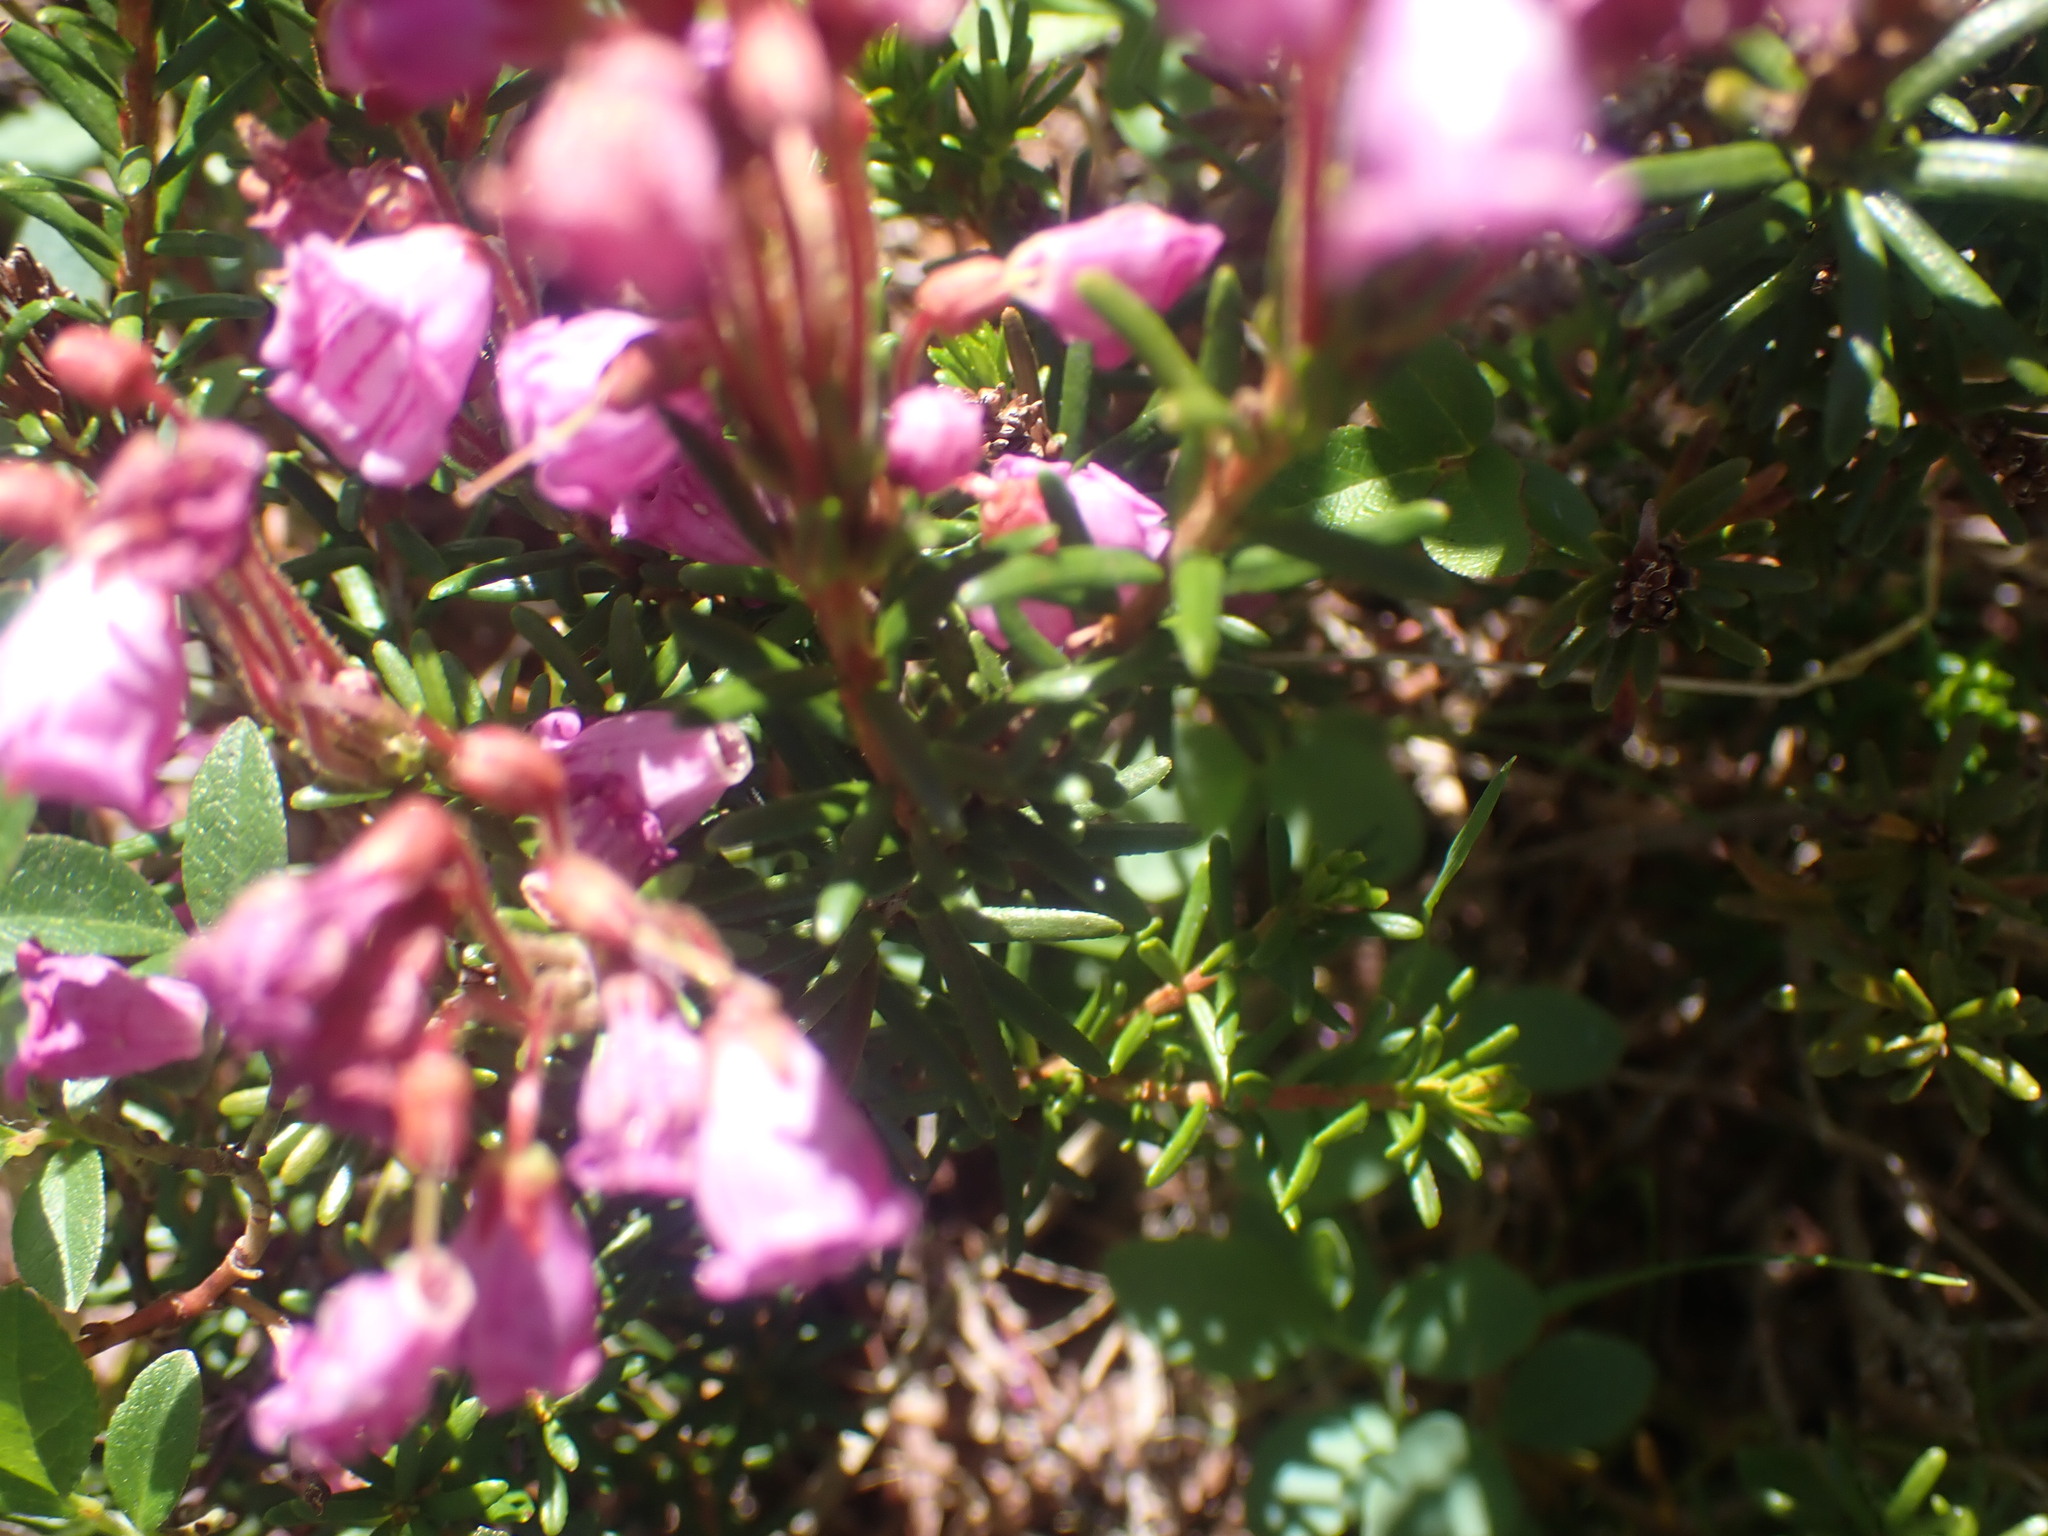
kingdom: Plantae
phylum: Tracheophyta
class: Magnoliopsida
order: Ericales
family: Ericaceae
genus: Phyllodoce
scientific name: Phyllodoce empetriformis
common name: Pink mountain heather
